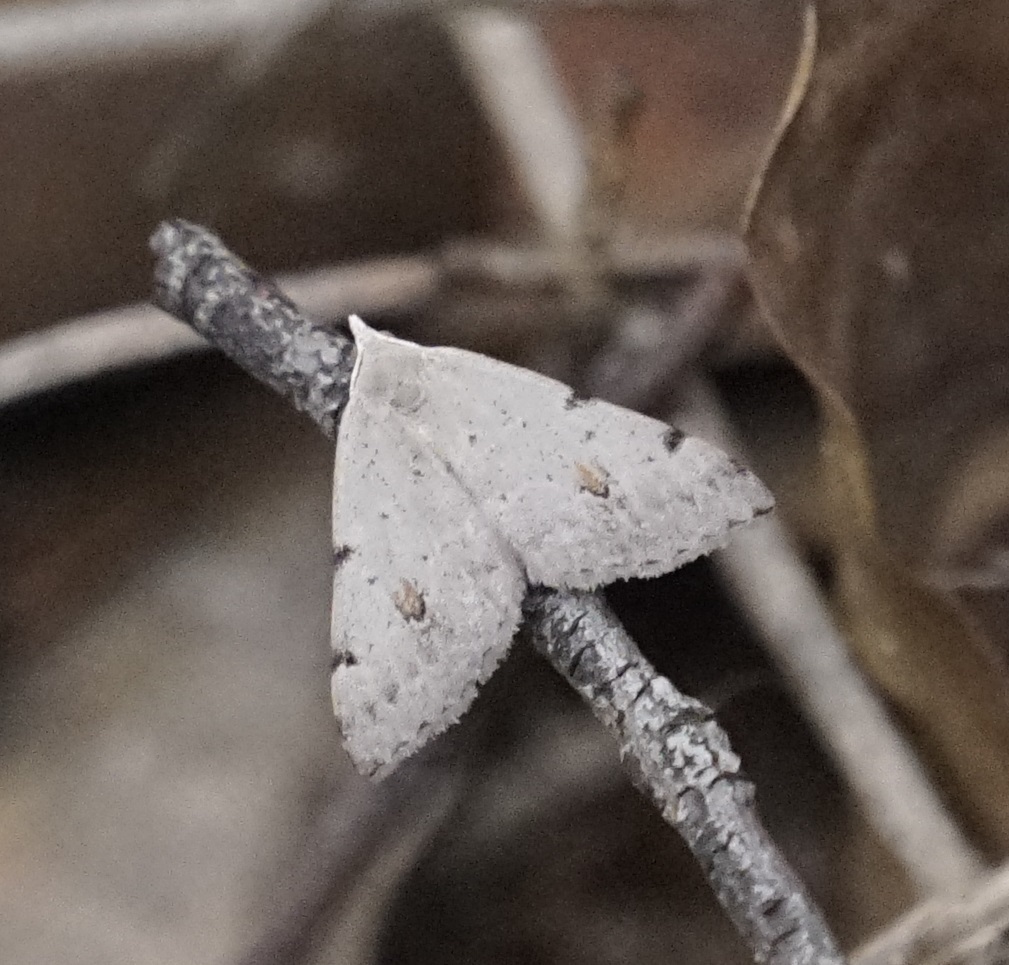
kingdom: Animalia
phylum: Arthropoda
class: Insecta
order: Lepidoptera
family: Geometridae
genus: Dichromodes
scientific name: Dichromodes estigmaria
